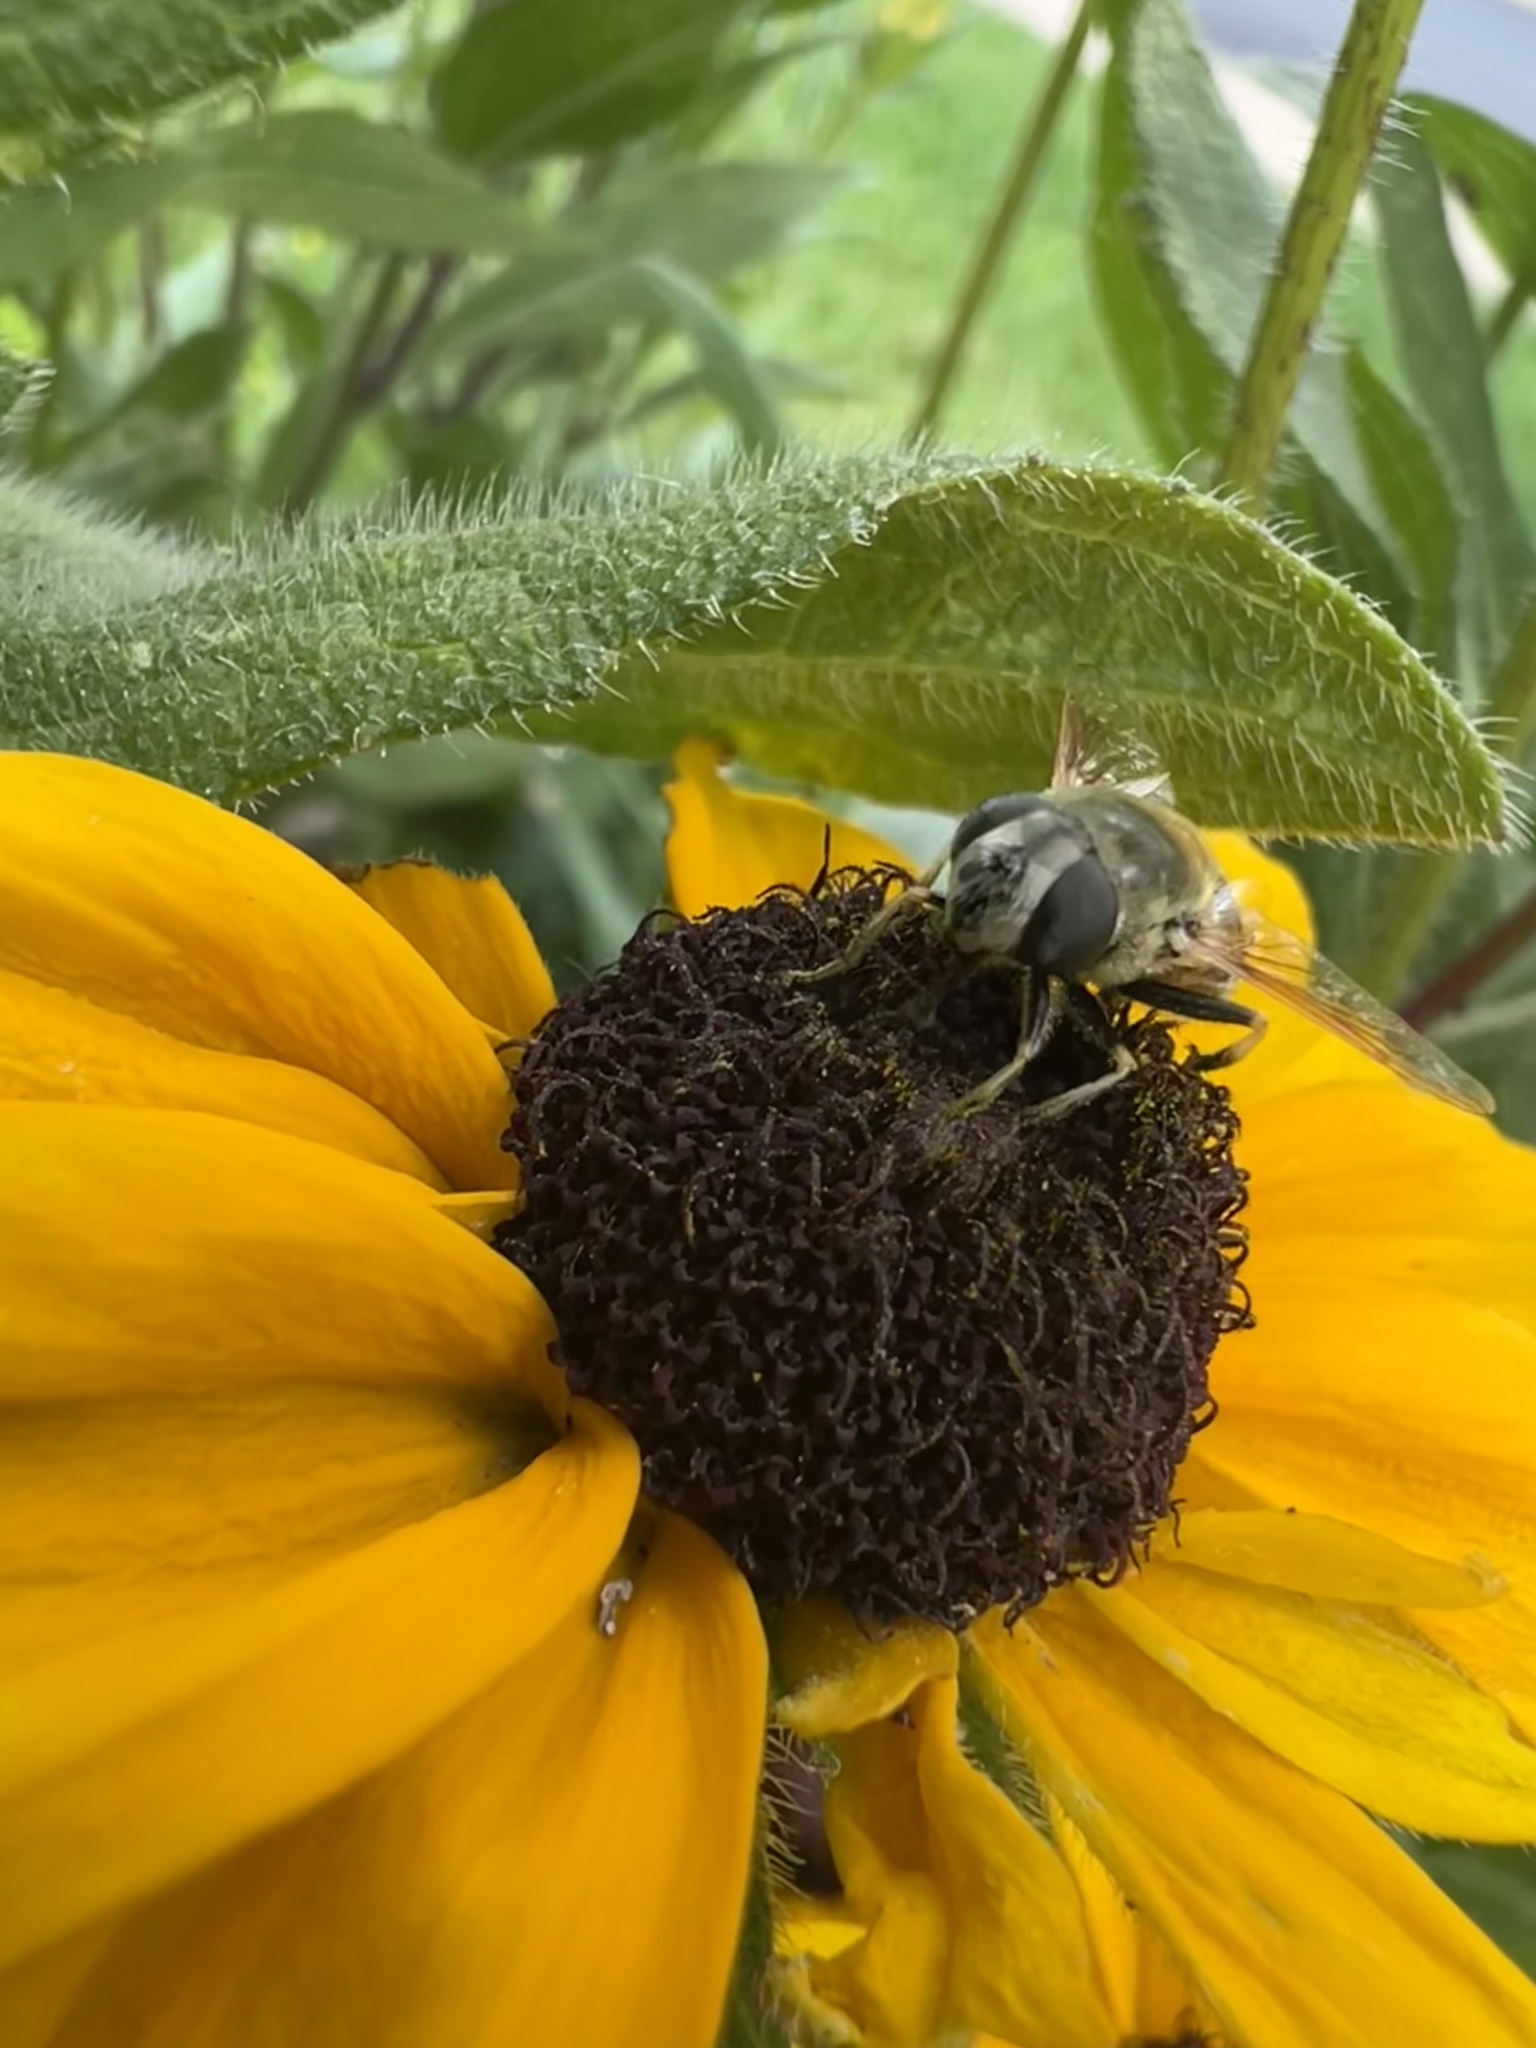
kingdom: Animalia
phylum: Arthropoda
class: Insecta
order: Diptera
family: Syrphidae
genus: Eristalis
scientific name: Eristalis stipator
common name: Yellow-shouldered drone fly
